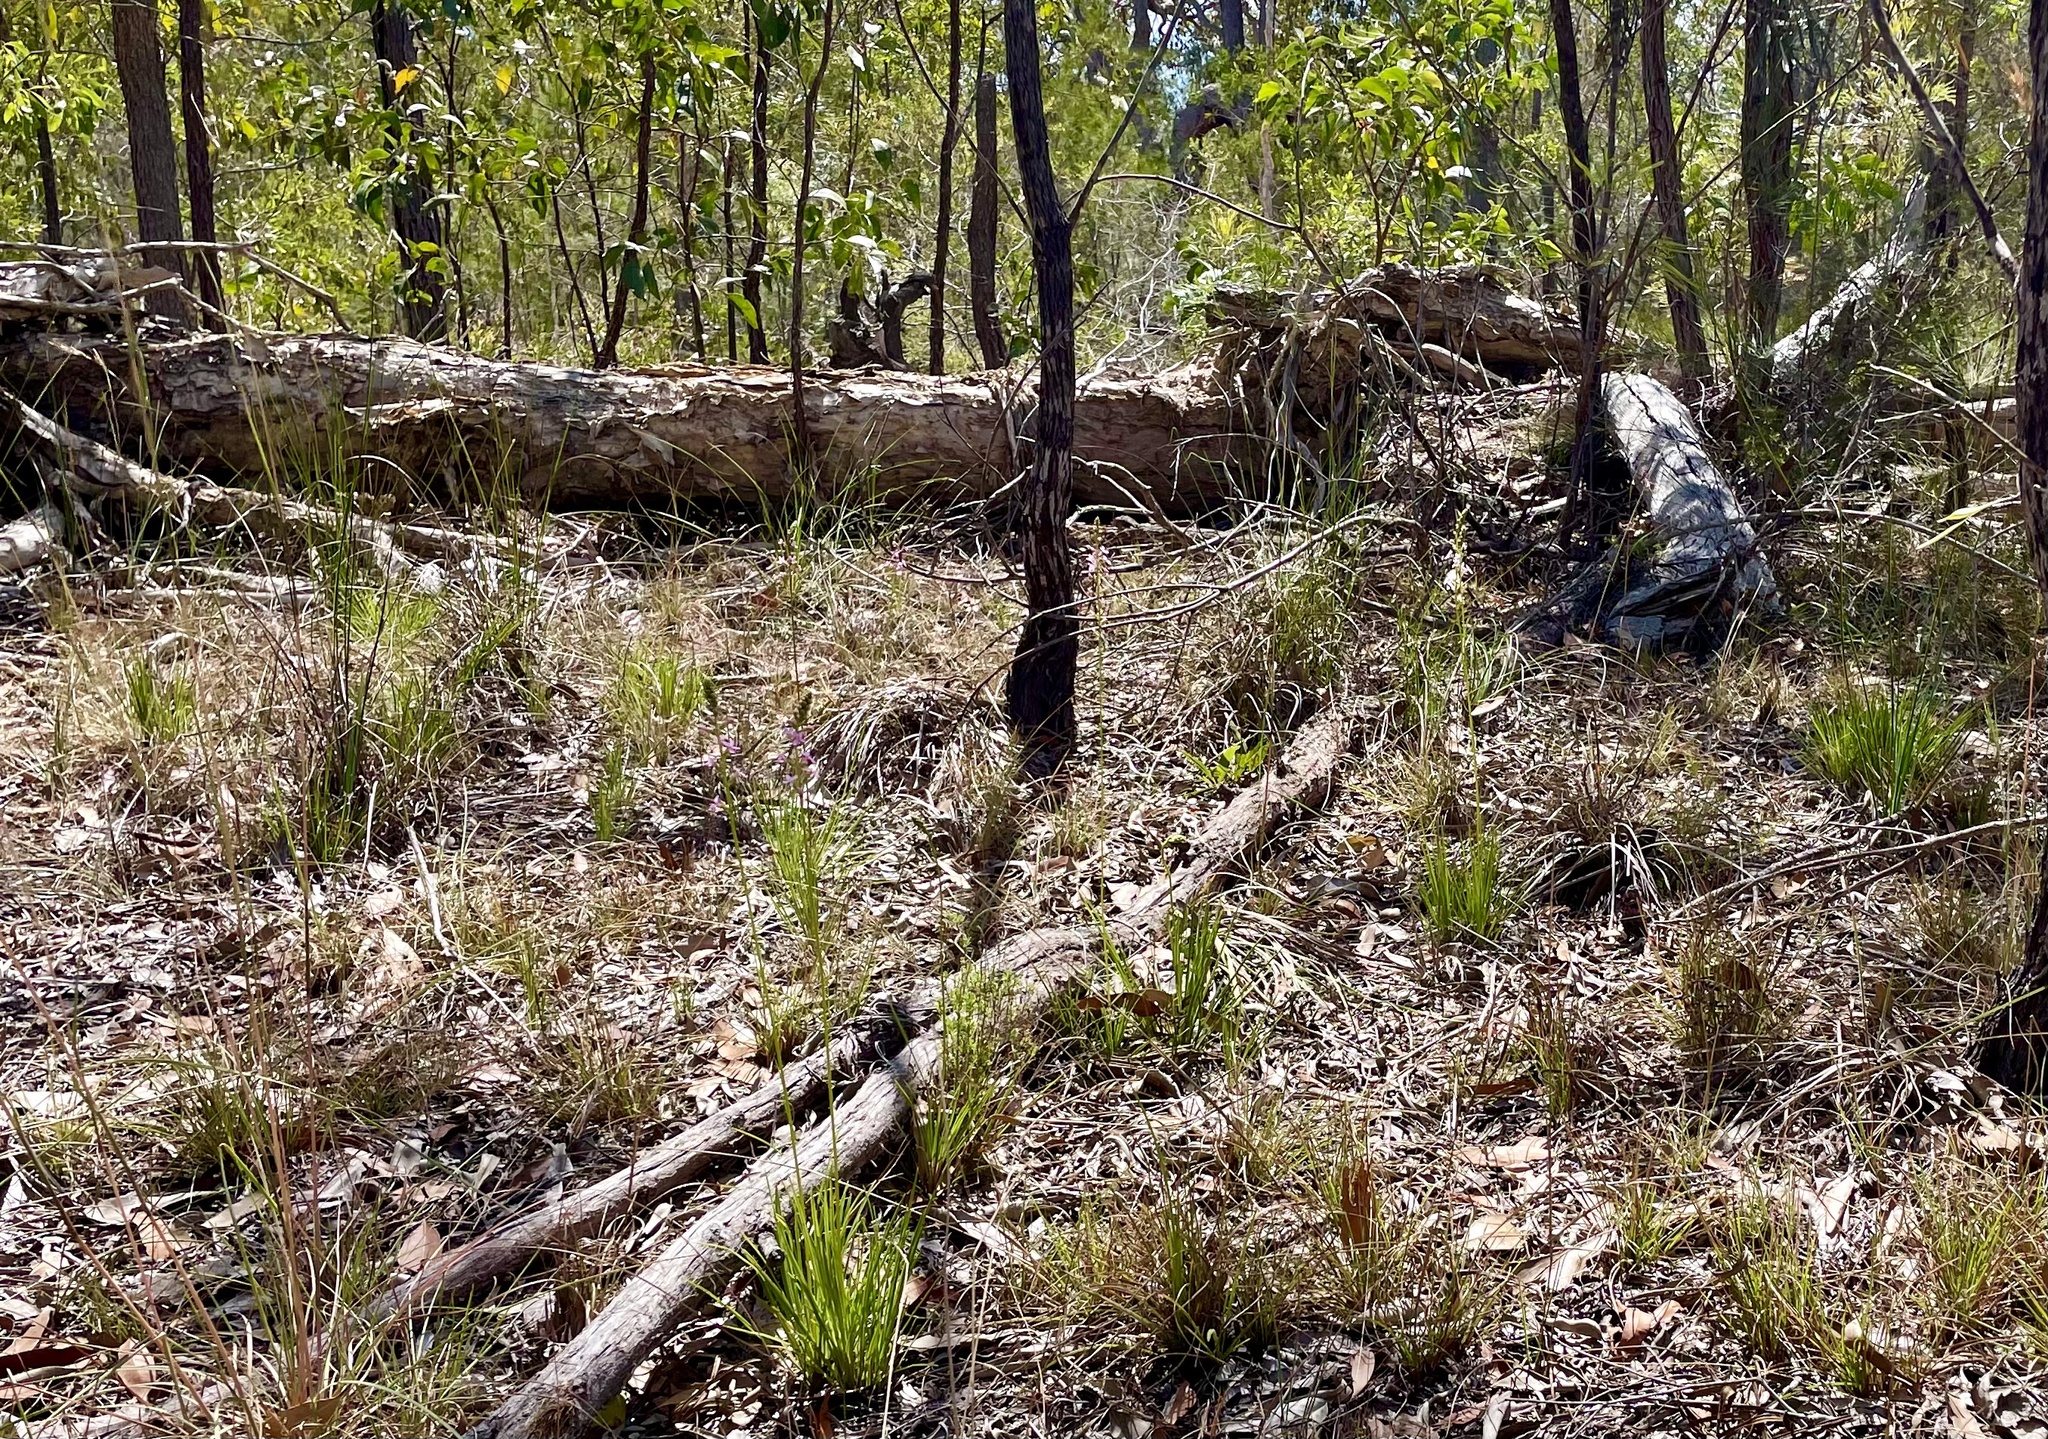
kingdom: Plantae
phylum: Tracheophyta
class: Magnoliopsida
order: Asterales
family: Stylidiaceae
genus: Stylidium
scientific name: Stylidium graminifolium
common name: Grass triggerplant
